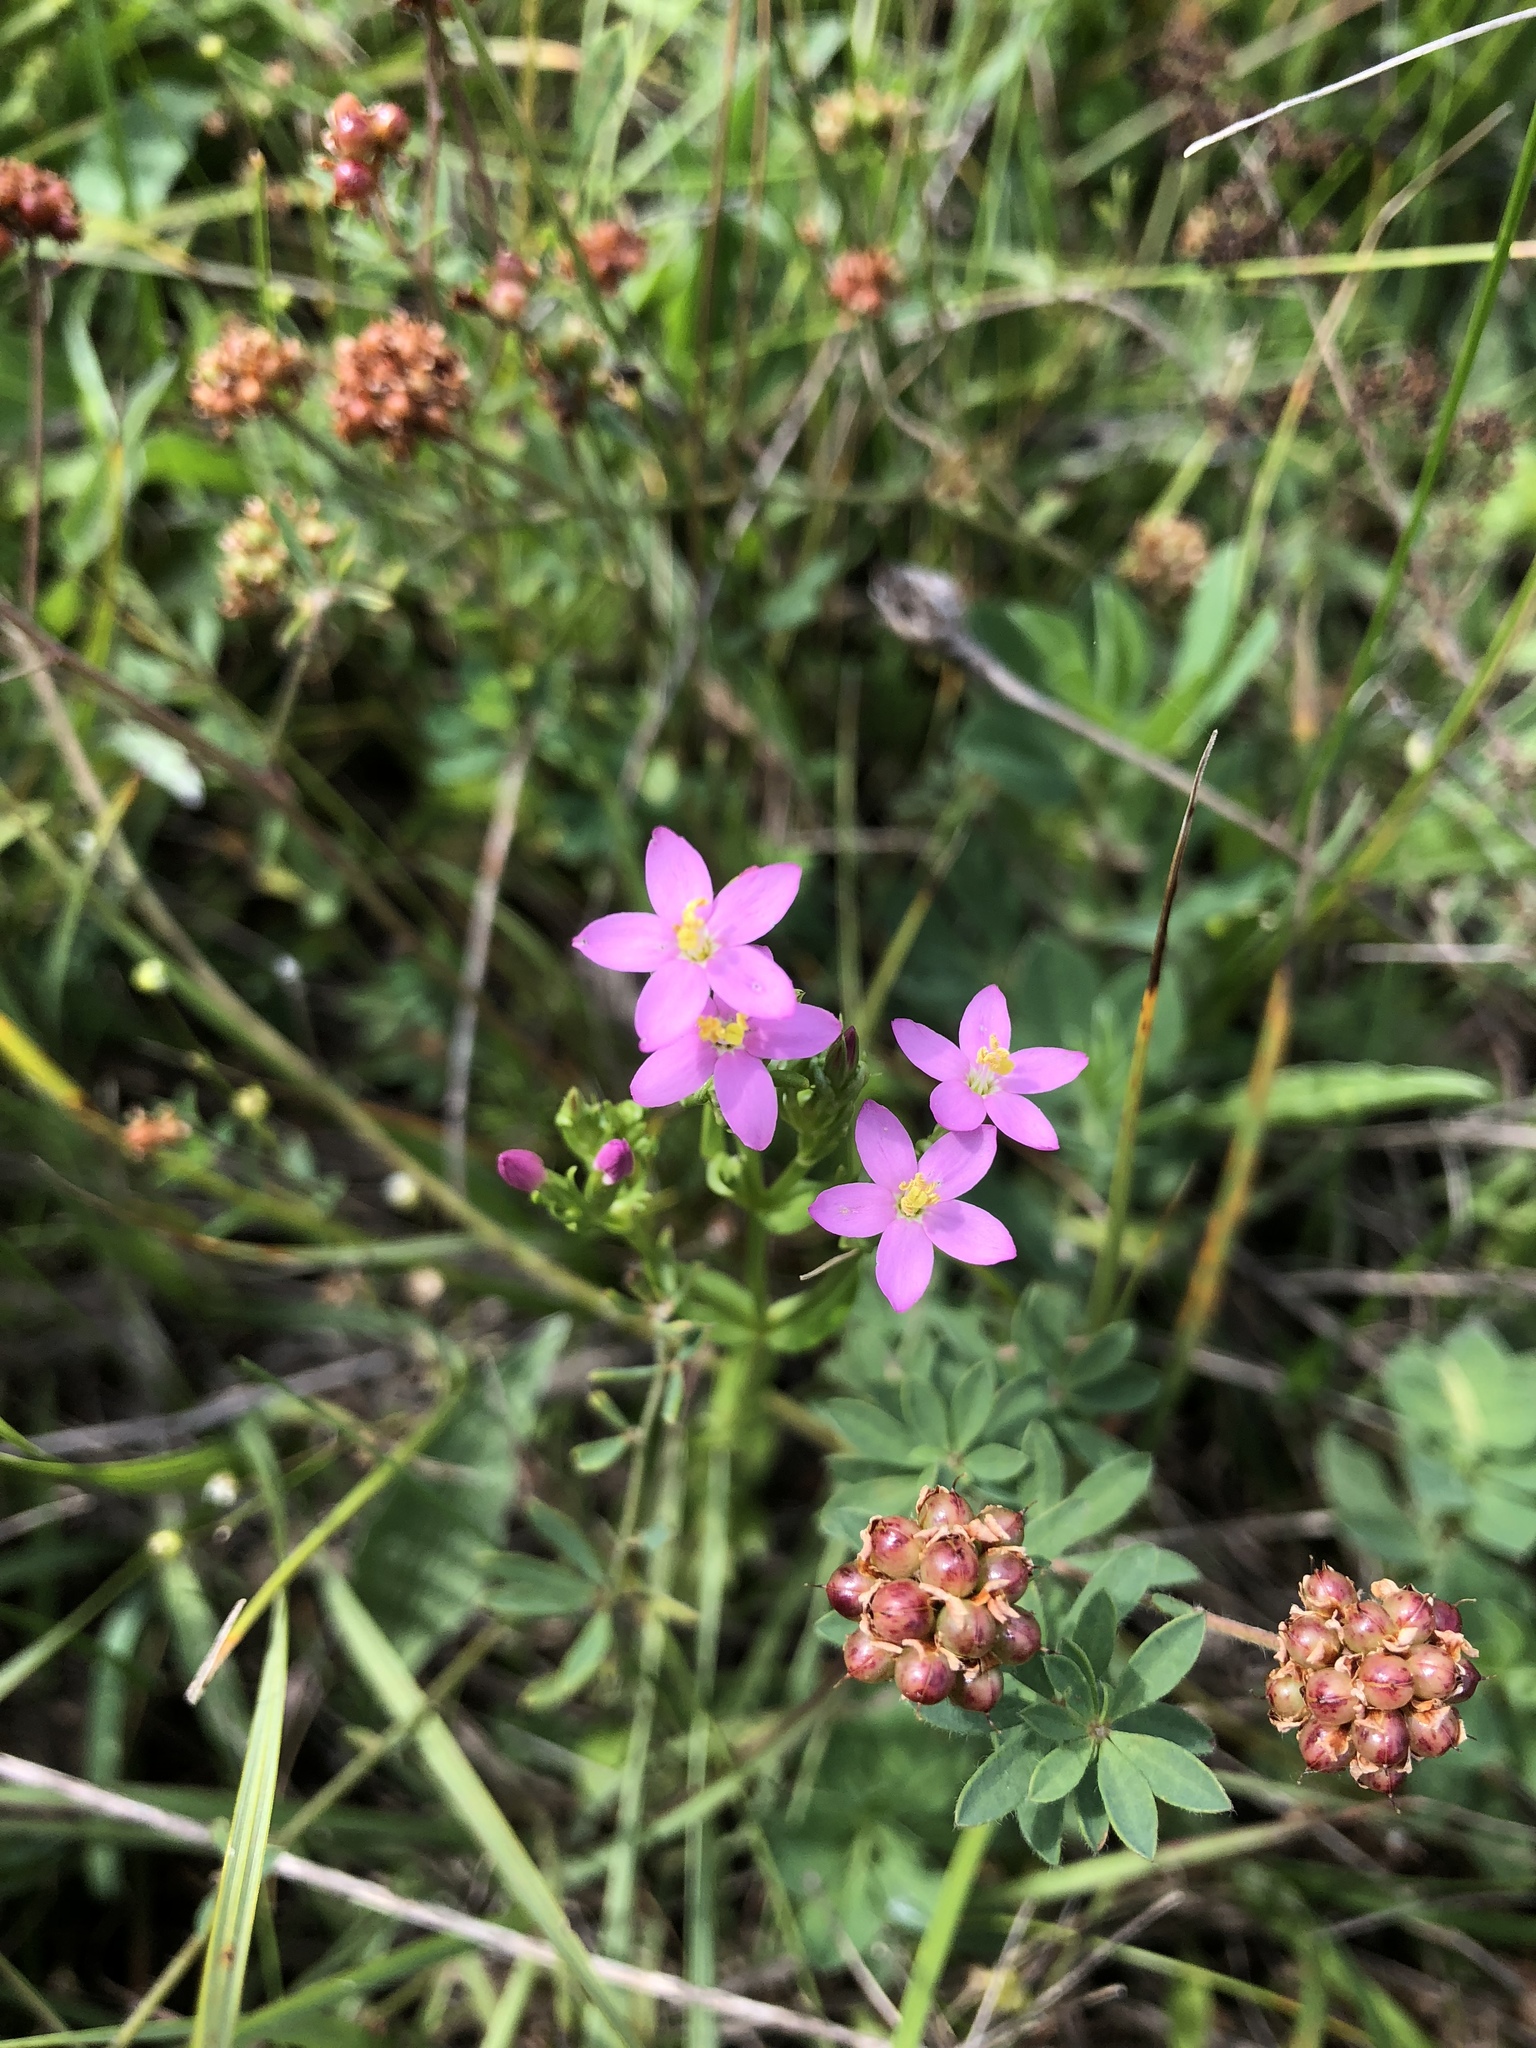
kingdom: Plantae
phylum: Tracheophyta
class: Magnoliopsida
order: Gentianales
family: Gentianaceae
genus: Centaurium
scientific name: Centaurium erythraea
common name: Common centaury
